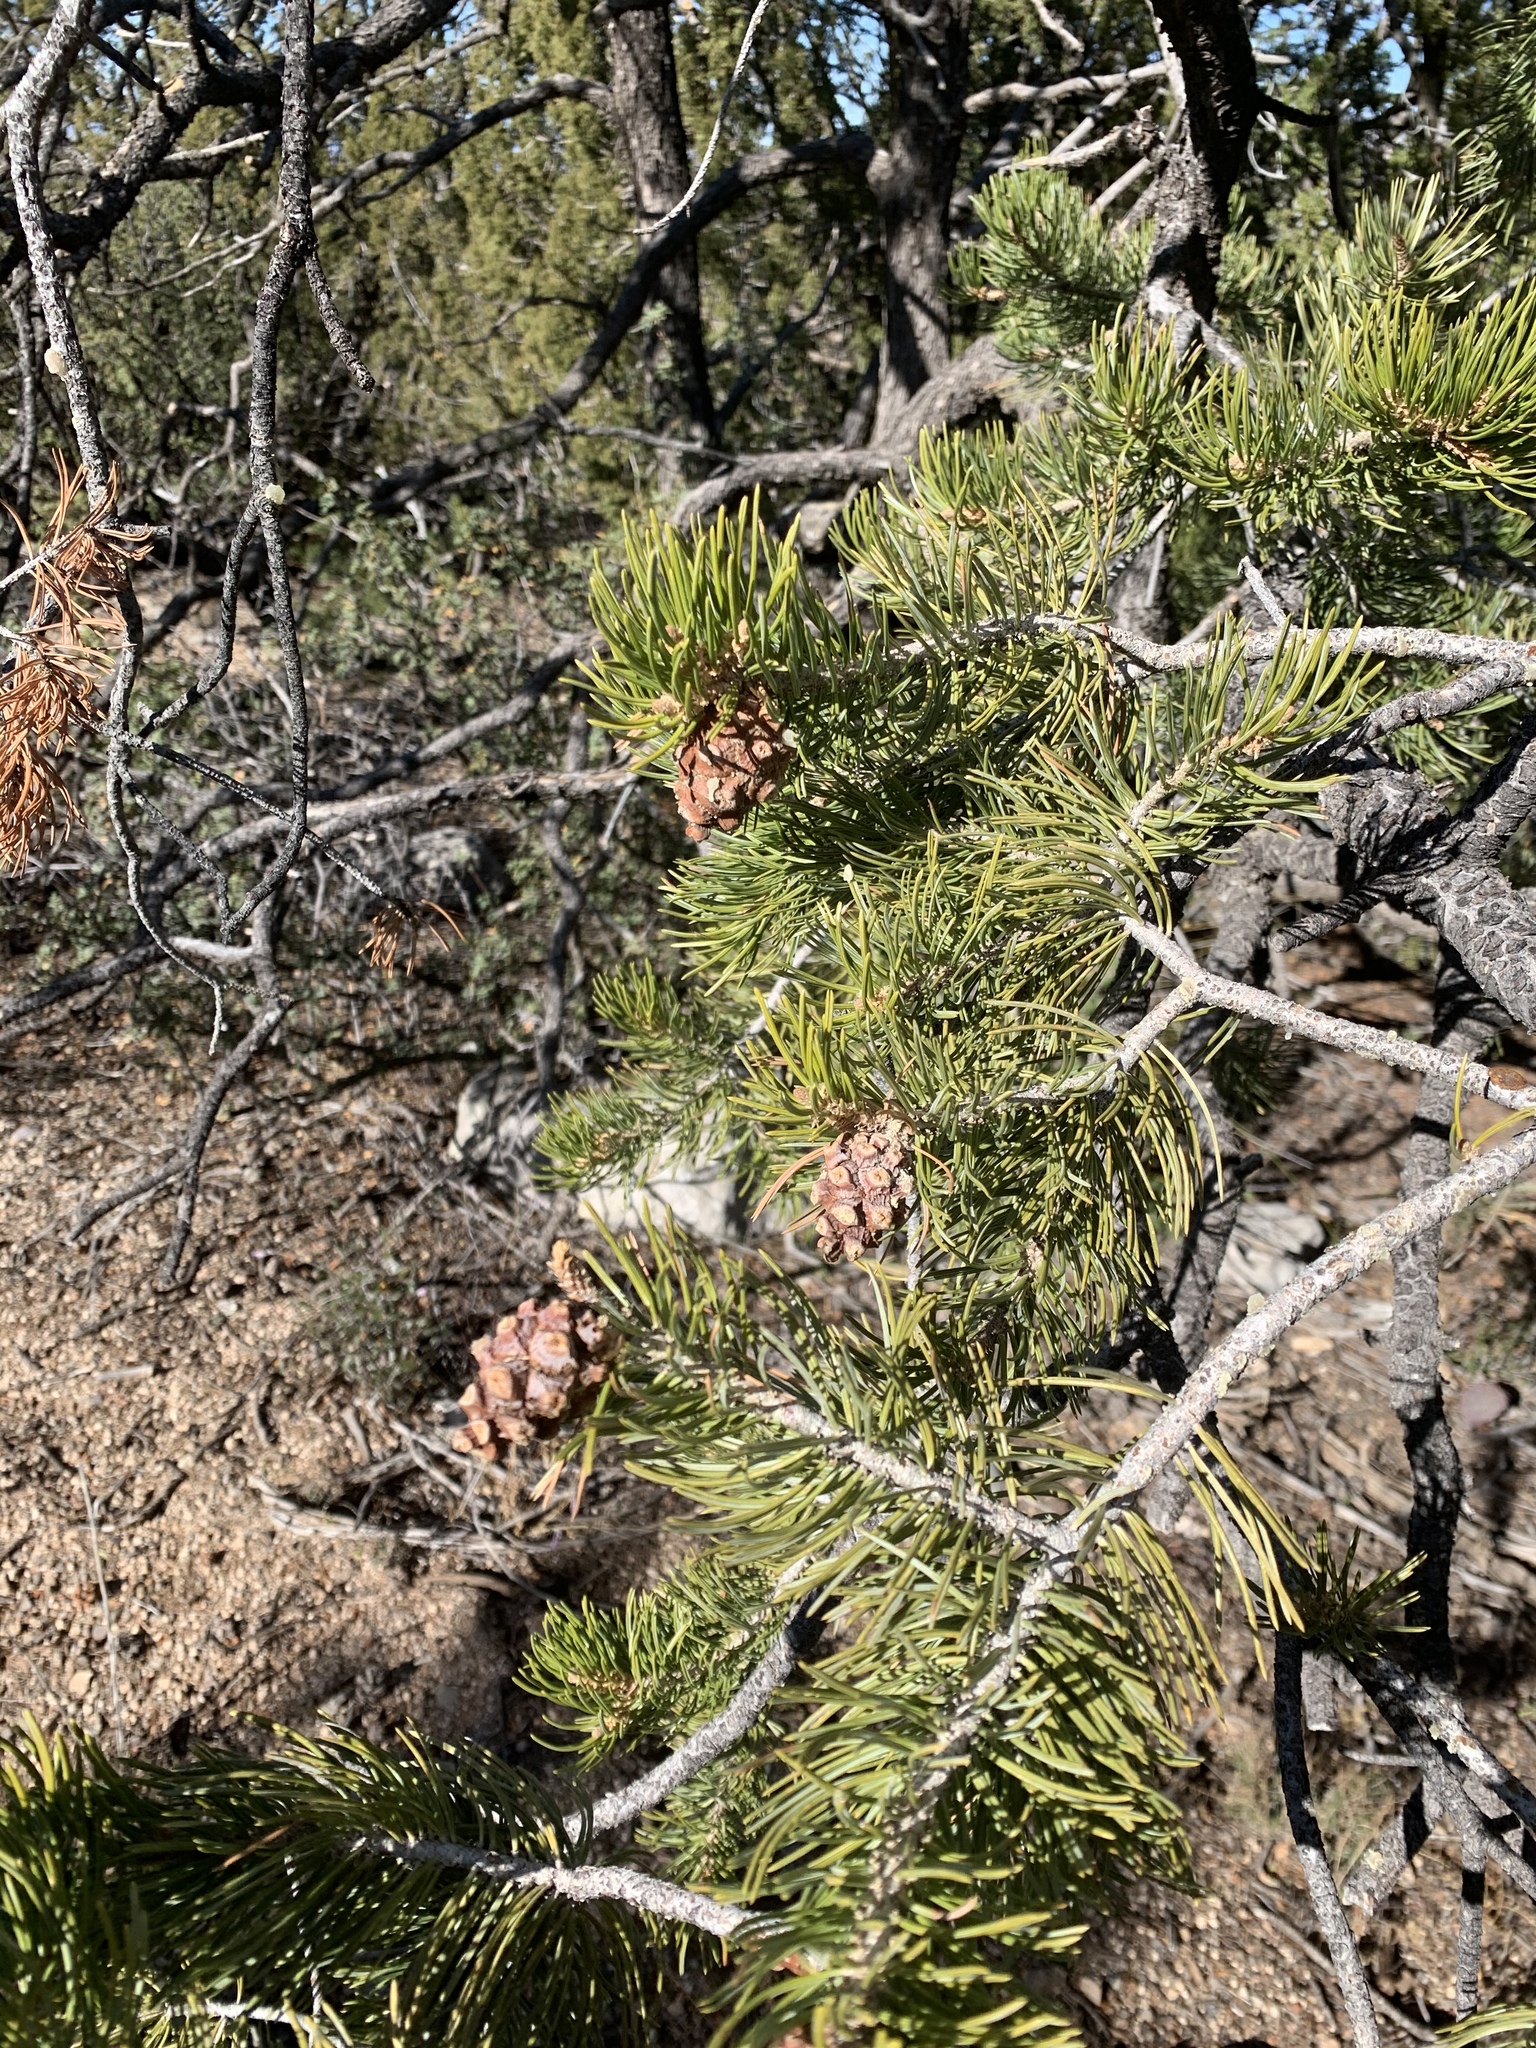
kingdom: Plantae
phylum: Tracheophyta
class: Pinopsida
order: Pinales
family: Pinaceae
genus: Pinus
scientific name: Pinus edulis
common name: Colorado pinyon
